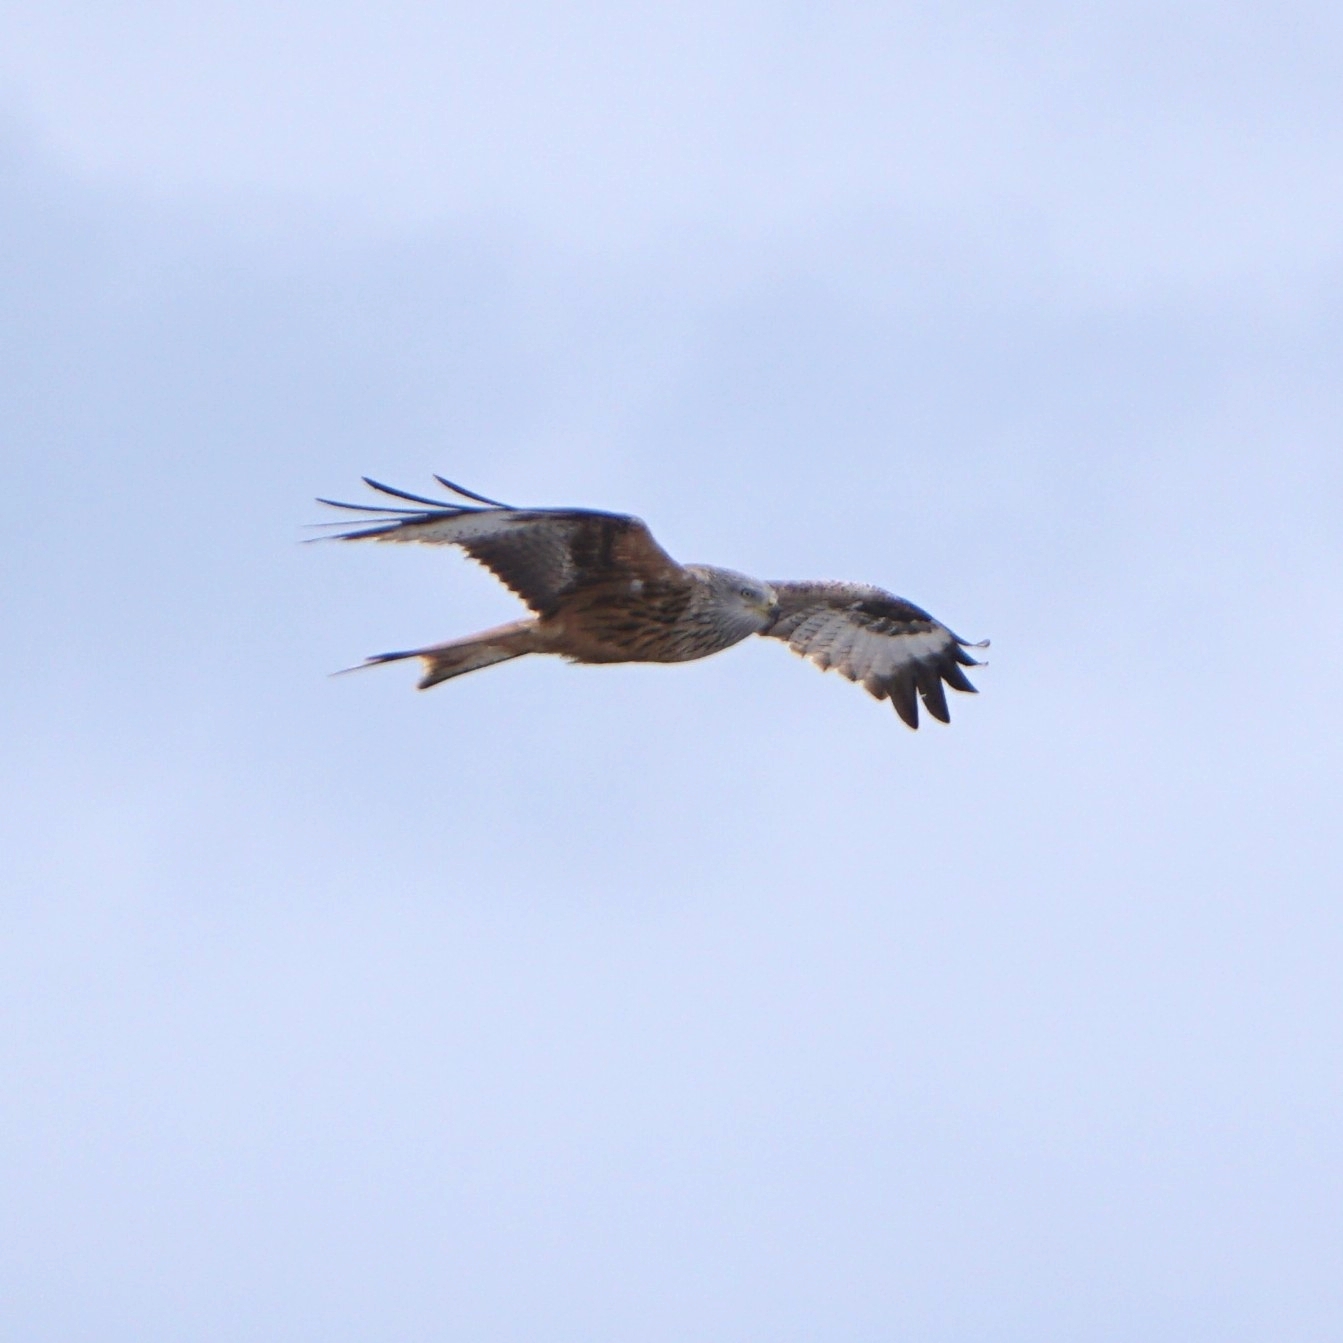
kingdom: Animalia
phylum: Chordata
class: Aves
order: Accipitriformes
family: Accipitridae
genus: Milvus
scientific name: Milvus milvus
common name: Red kite
